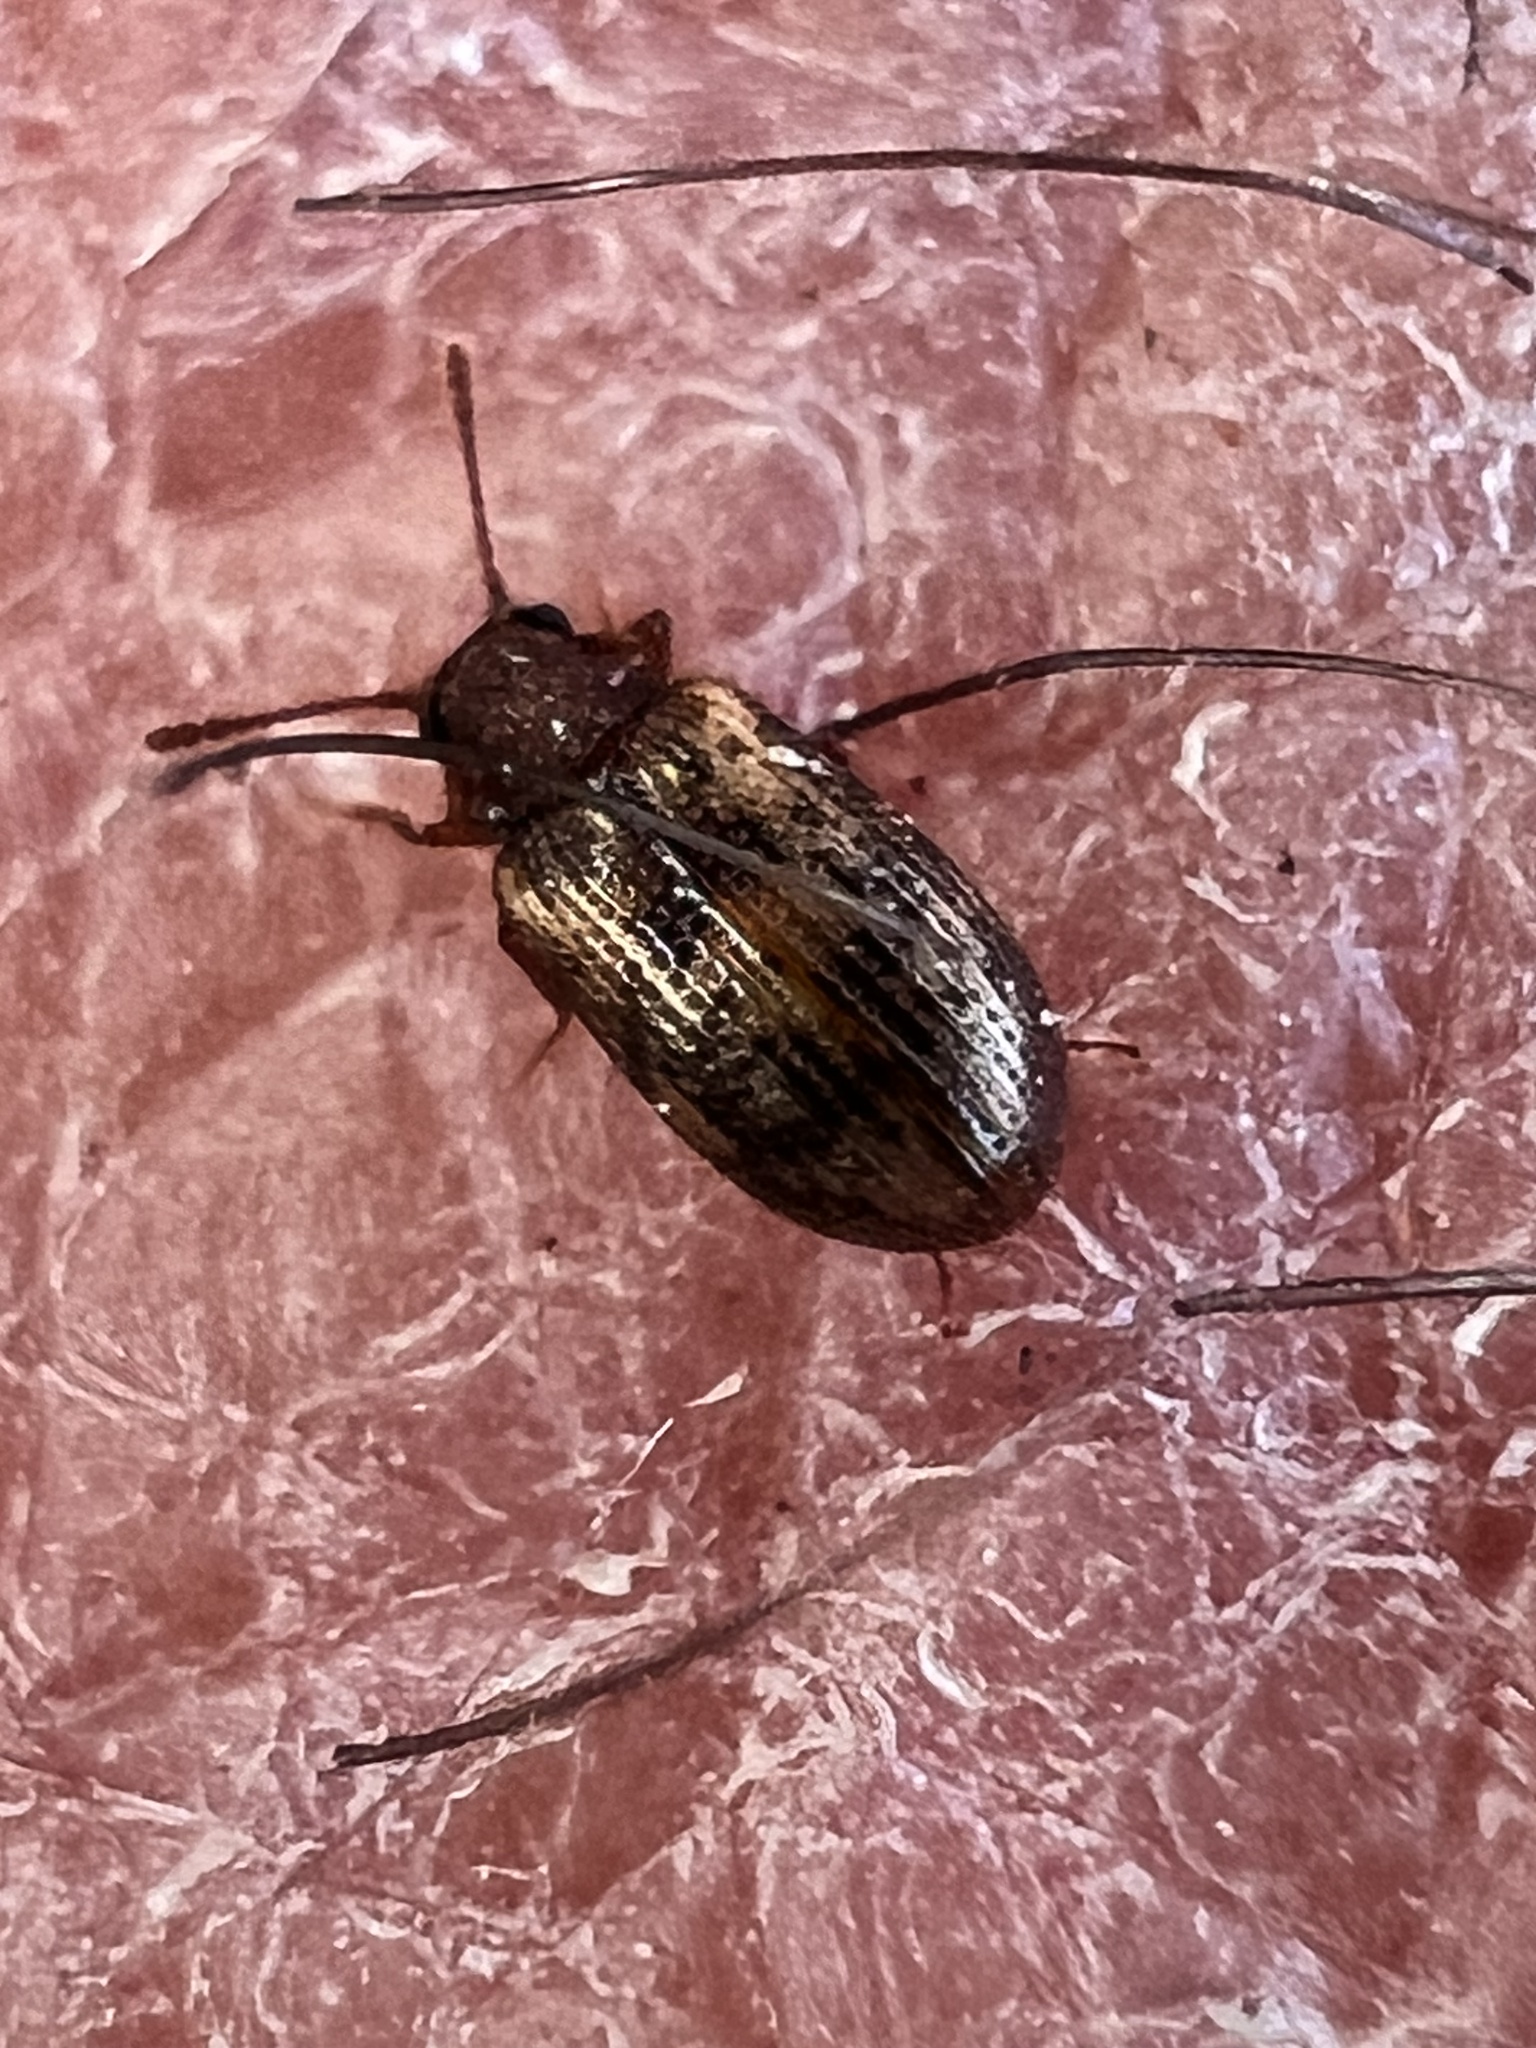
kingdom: Animalia
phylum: Arthropoda
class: Insecta
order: Coleoptera
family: Derodontidae
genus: Derodontus
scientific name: Derodontus esotericus
